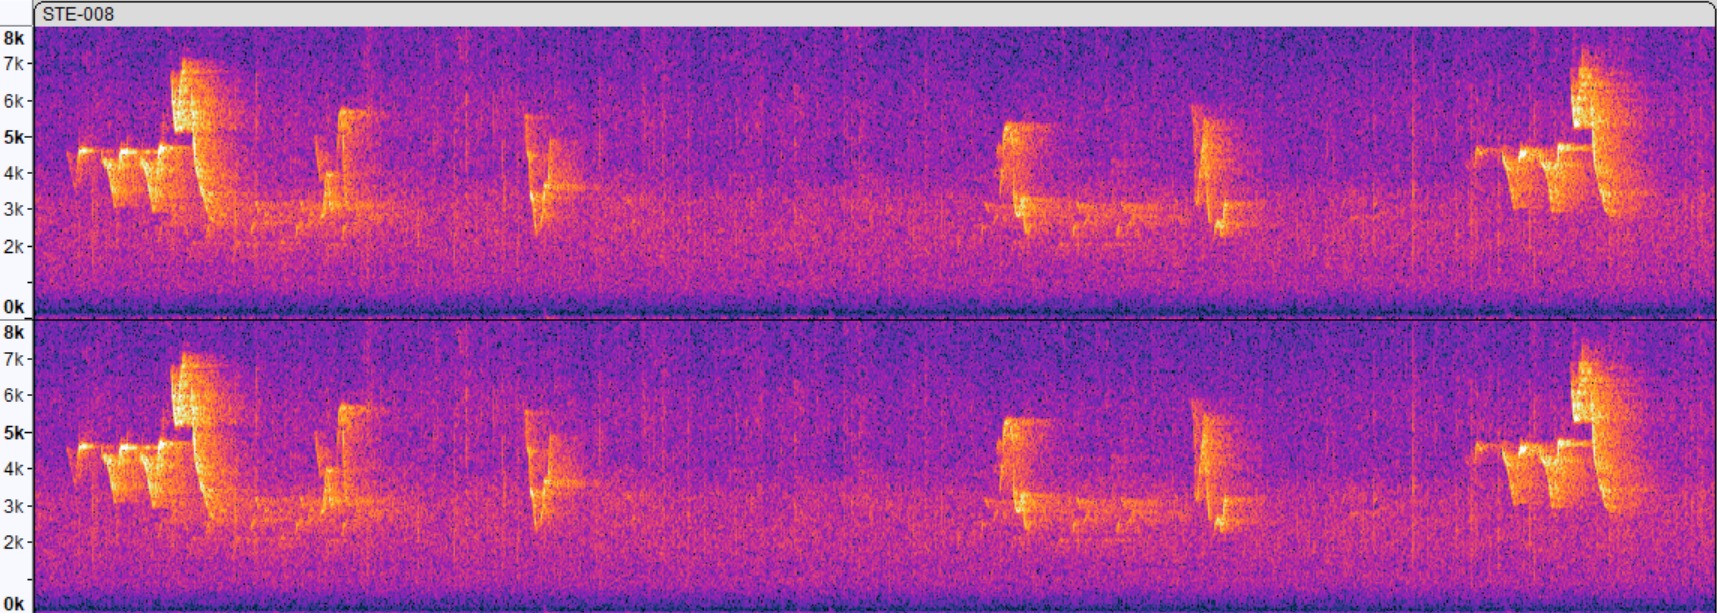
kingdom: Animalia
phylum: Chordata
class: Aves
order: Passeriformes
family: Parulidae
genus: Setophaga
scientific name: Setophaga citrina
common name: Hooded warbler
